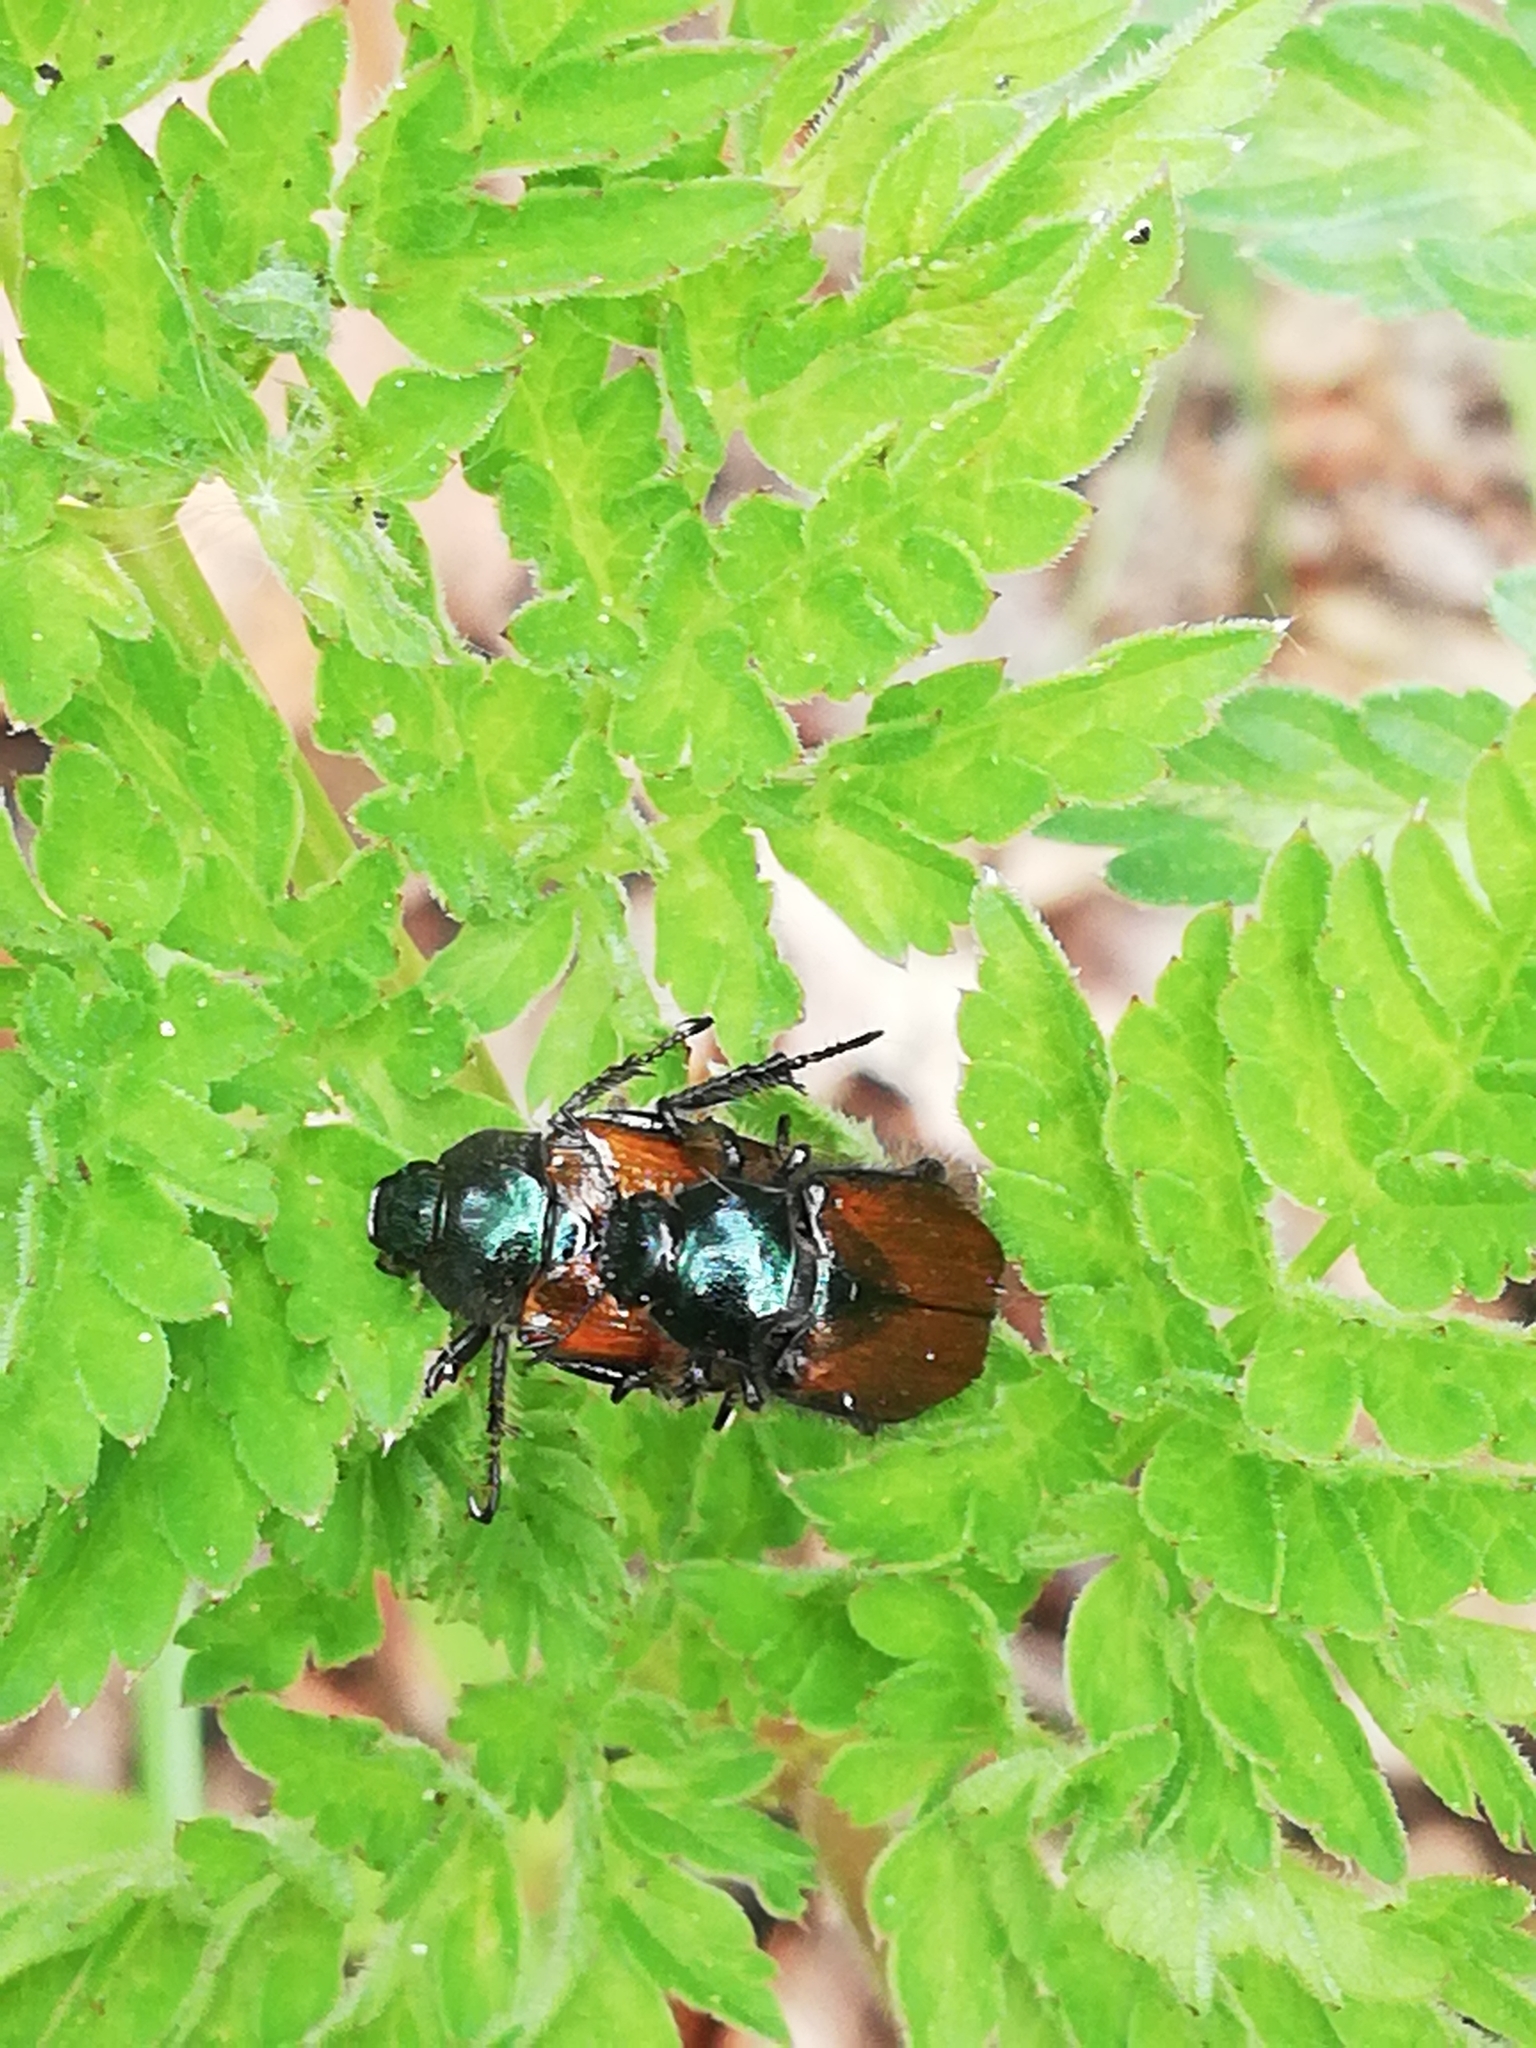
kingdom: Animalia
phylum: Arthropoda
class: Insecta
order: Coleoptera
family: Scarabaeidae
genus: Phyllopertha
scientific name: Phyllopertha horticola
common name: Garden chafer
